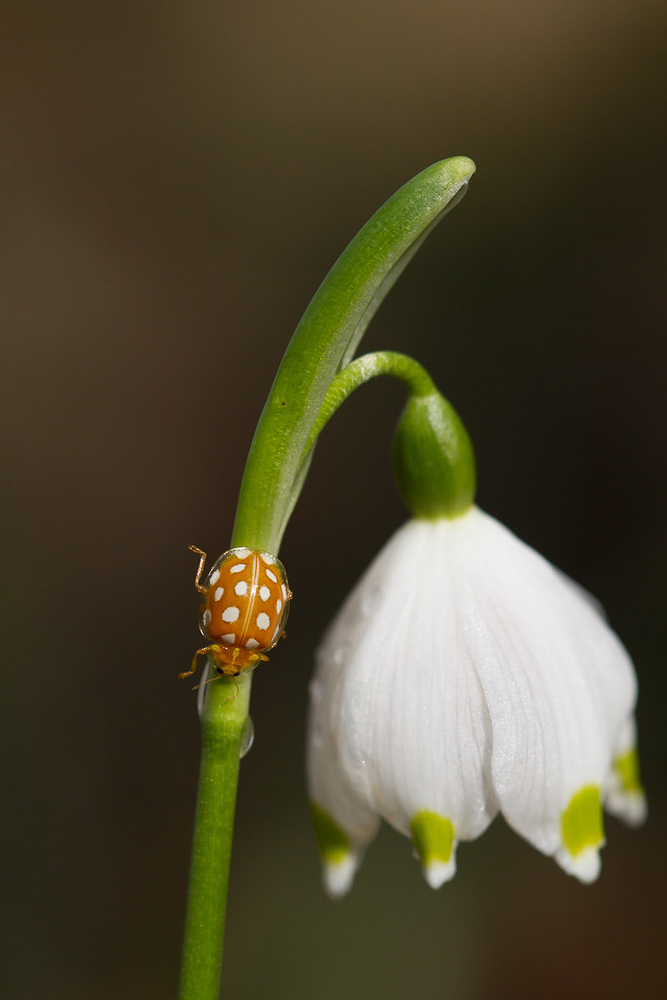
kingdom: Animalia
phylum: Arthropoda
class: Insecta
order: Coleoptera
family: Coccinellidae
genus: Halyzia
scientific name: Halyzia sedecimguttata
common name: Orange ladybird
